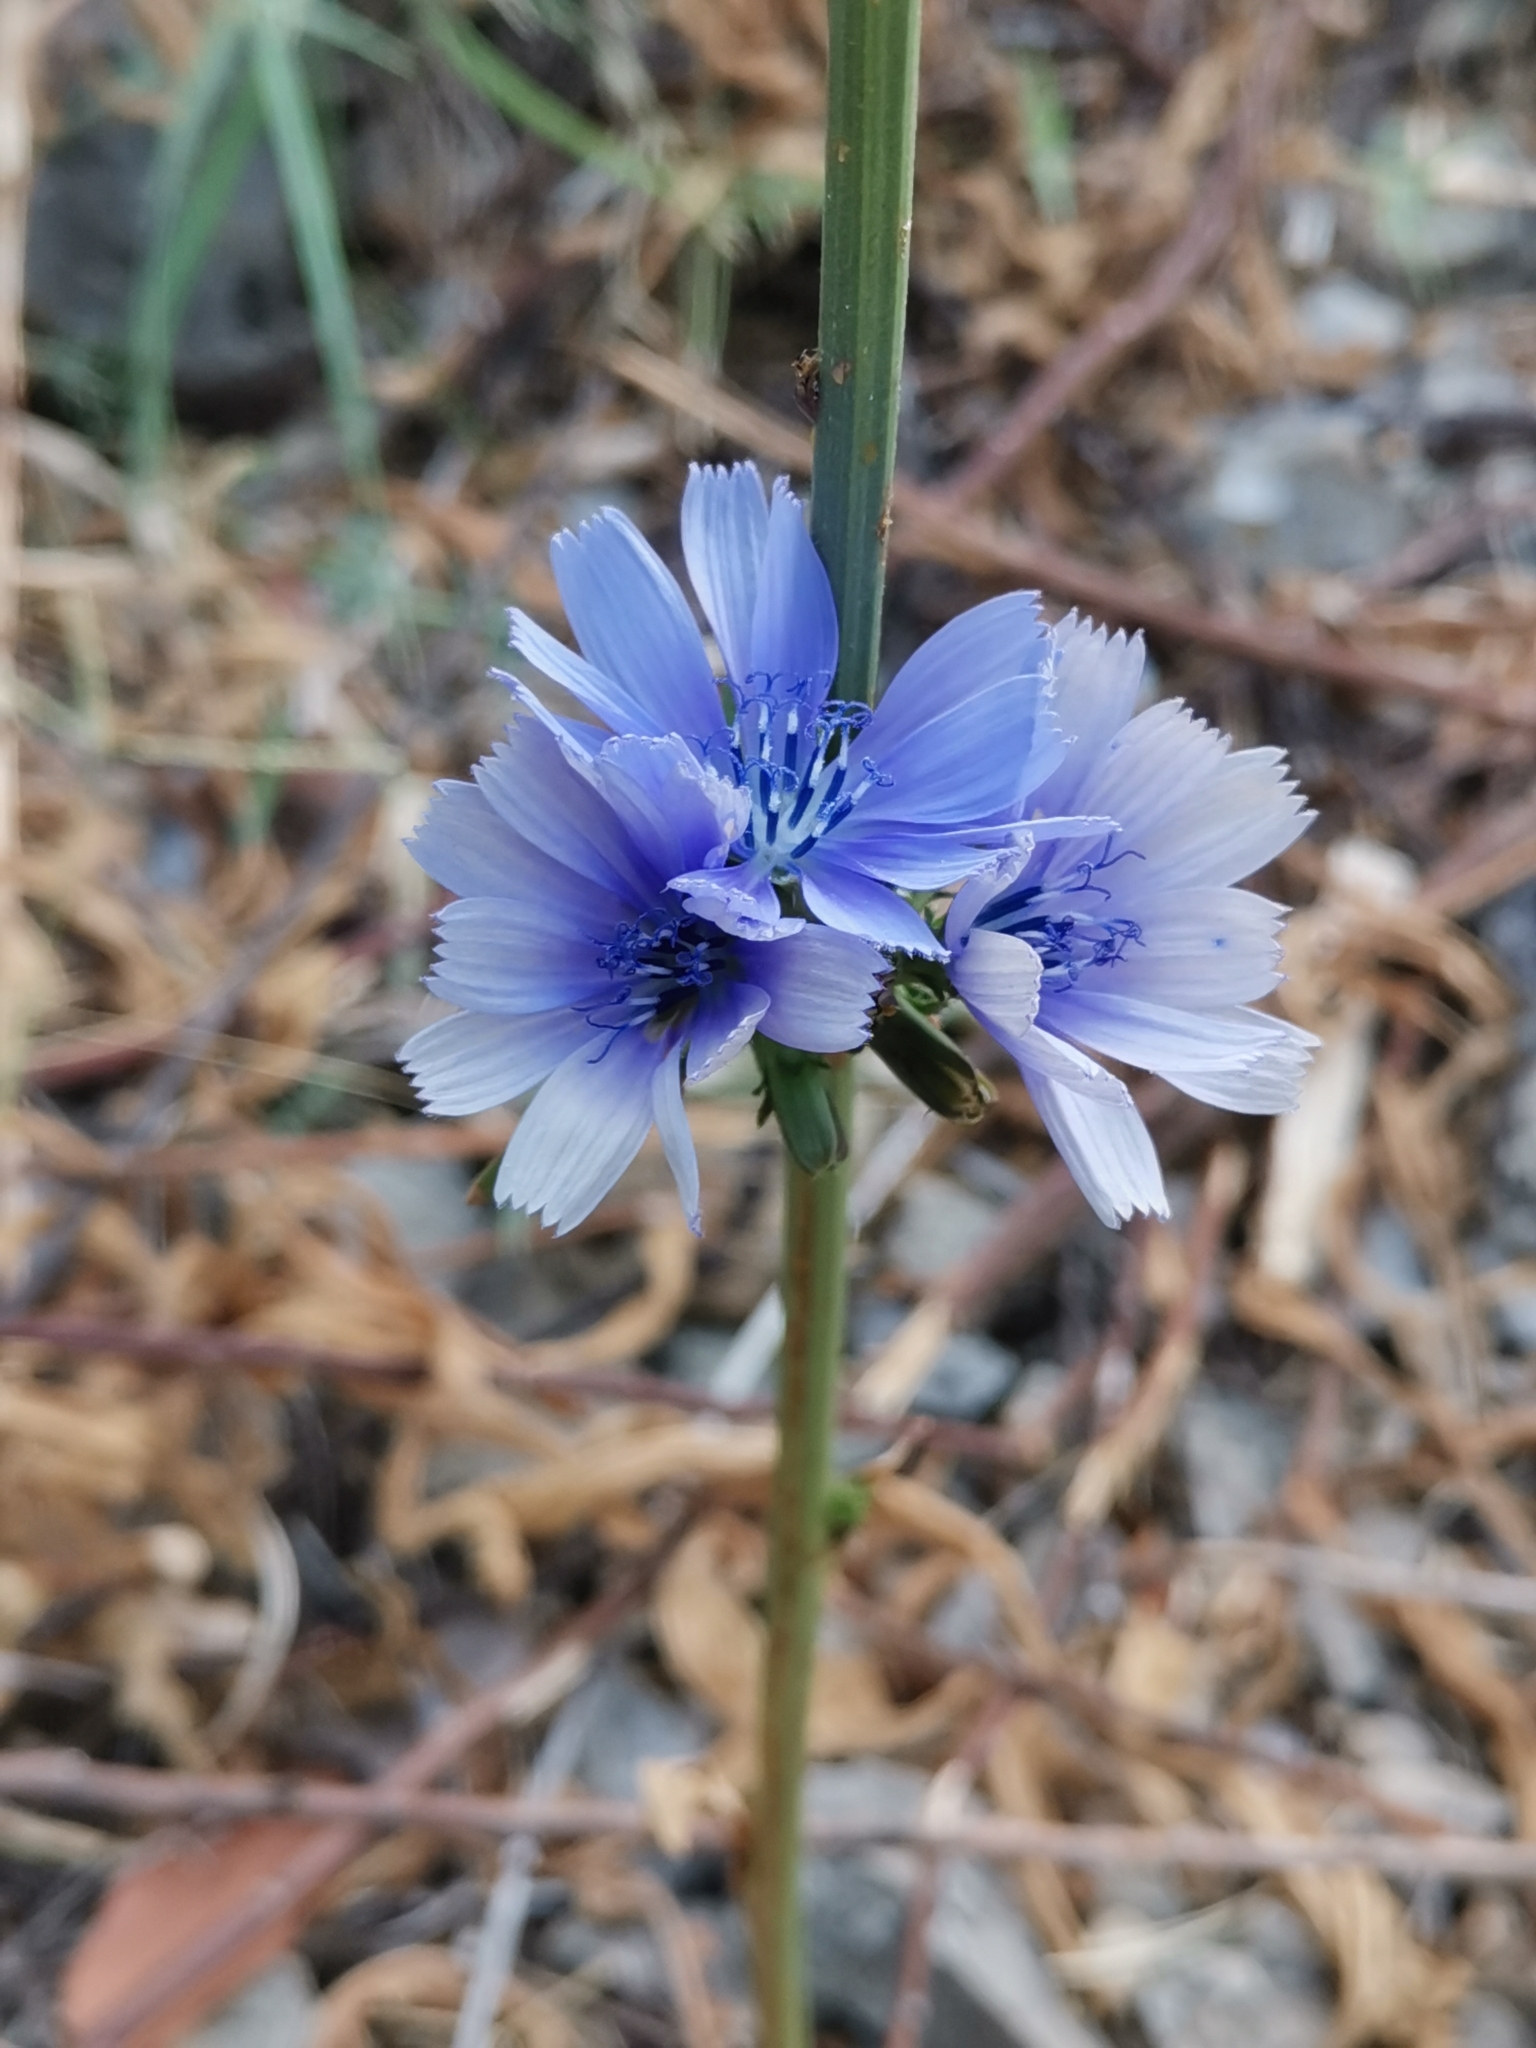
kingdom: Plantae
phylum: Tracheophyta
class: Magnoliopsida
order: Asterales
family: Asteraceae
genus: Cichorium
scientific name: Cichorium intybus
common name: Chicory
